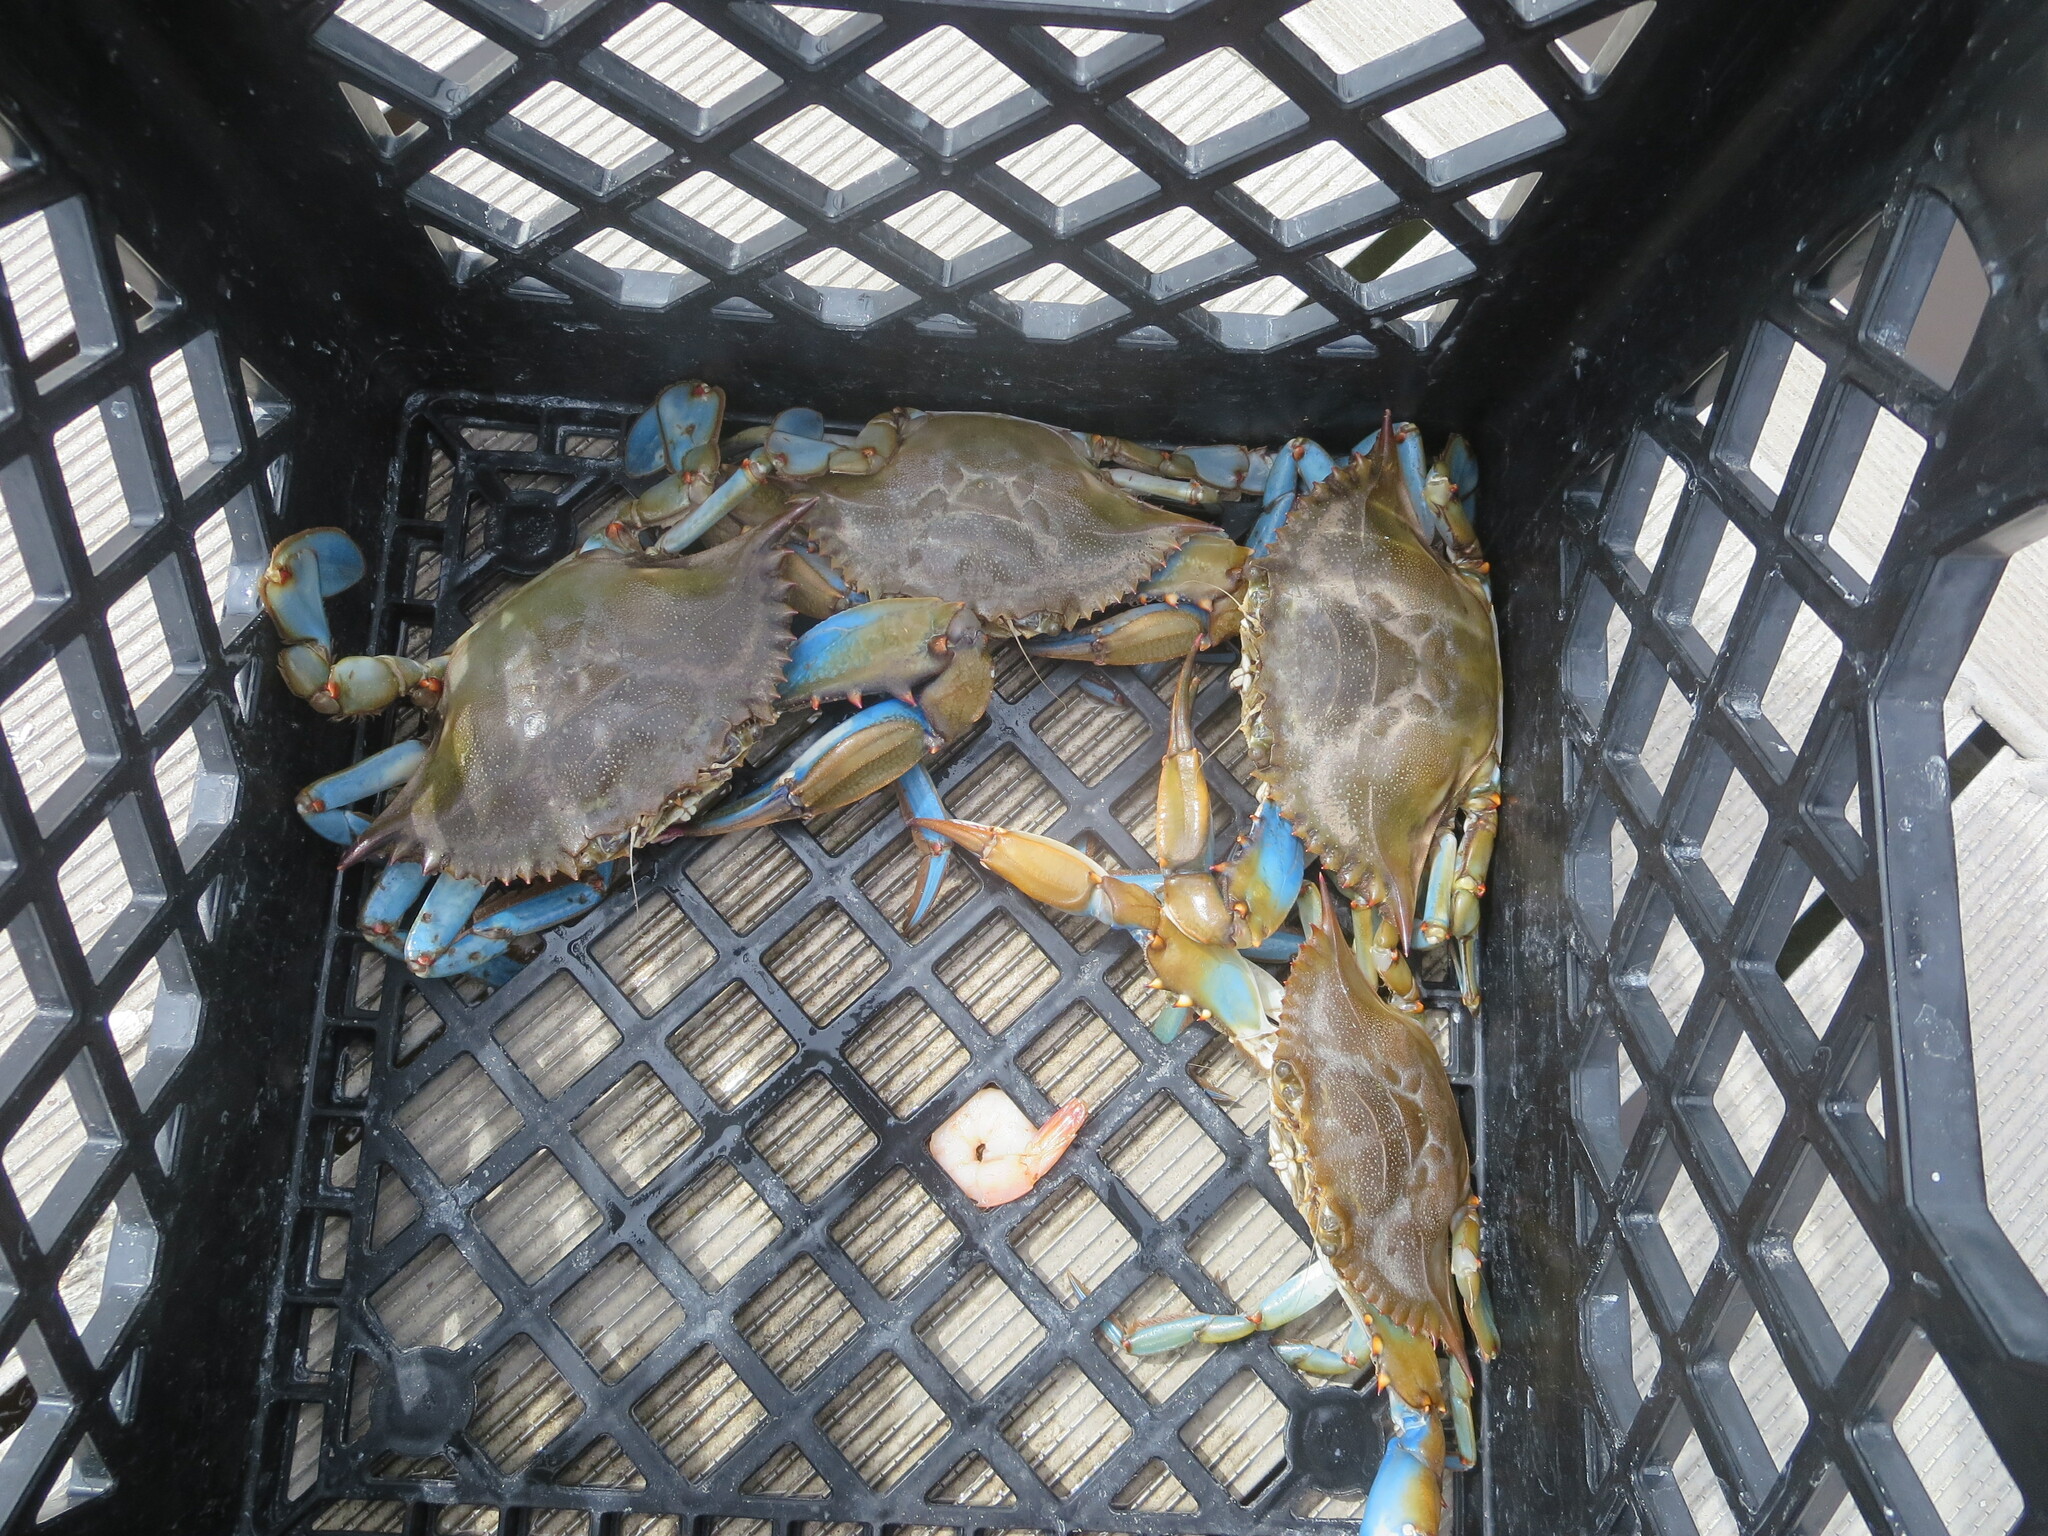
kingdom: Animalia
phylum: Arthropoda
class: Malacostraca
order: Decapoda
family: Portunidae
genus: Callinectes
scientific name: Callinectes sapidus
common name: Blue crab
